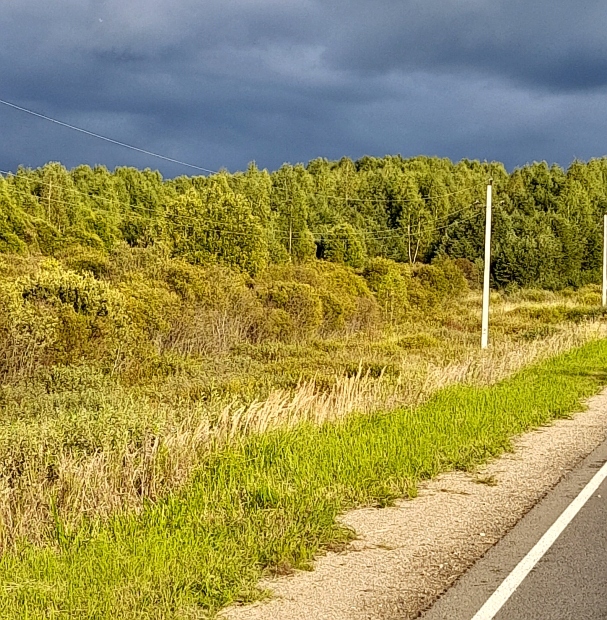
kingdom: Plantae
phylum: Tracheophyta
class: Liliopsida
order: Poales
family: Poaceae
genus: Calamagrostis
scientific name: Calamagrostis epigejos
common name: Wood small-reed
